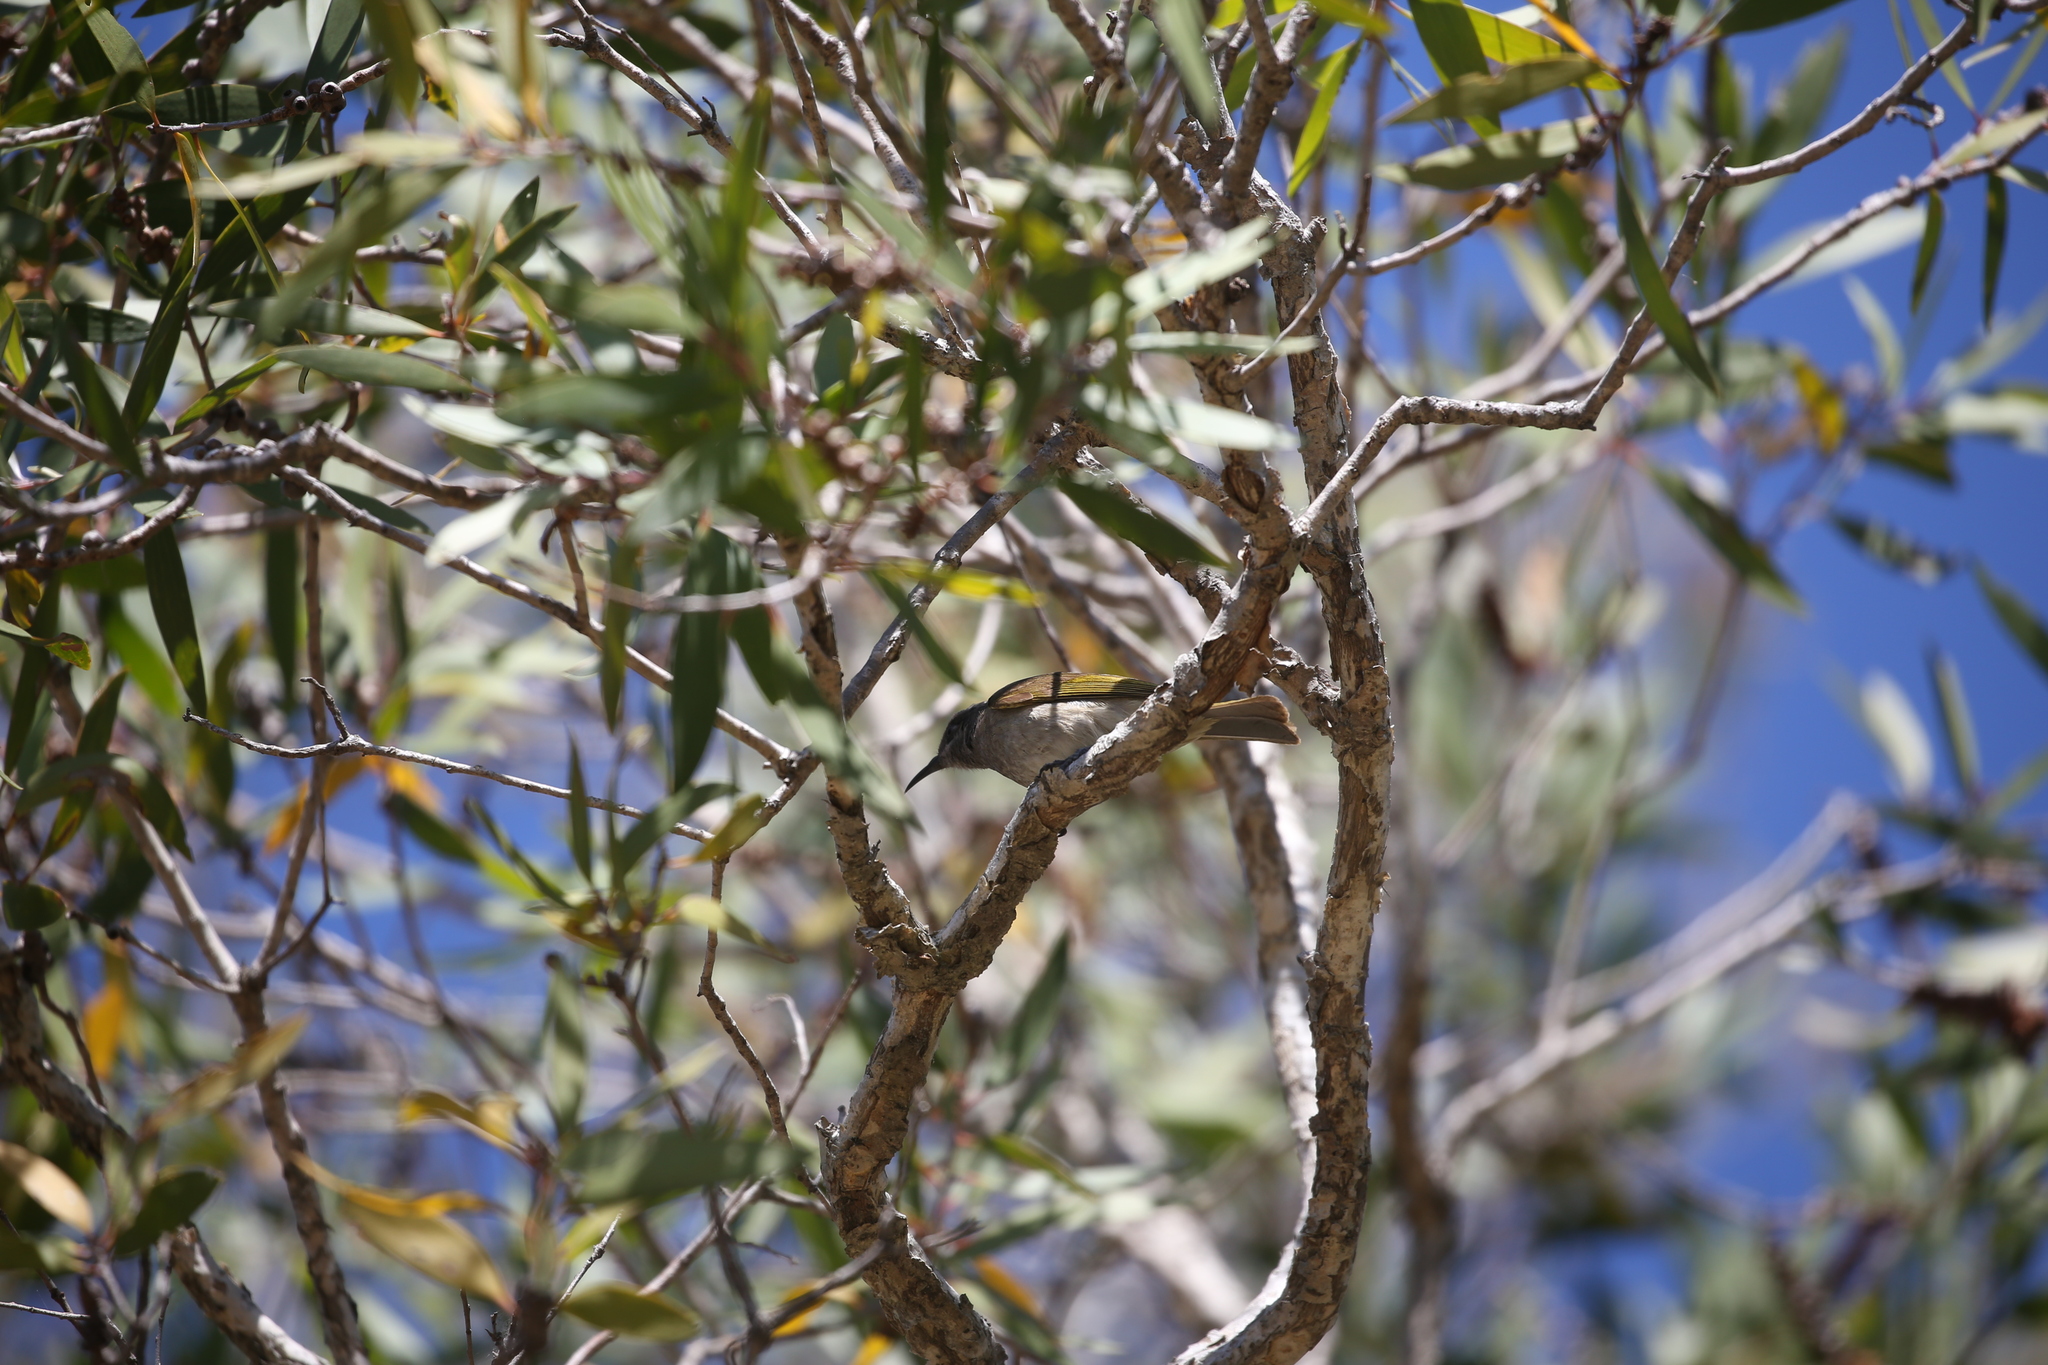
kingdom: Animalia
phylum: Chordata
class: Aves
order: Passeriformes
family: Meliphagidae
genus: Lichmera
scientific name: Lichmera indistincta
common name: Brown honeyeater
